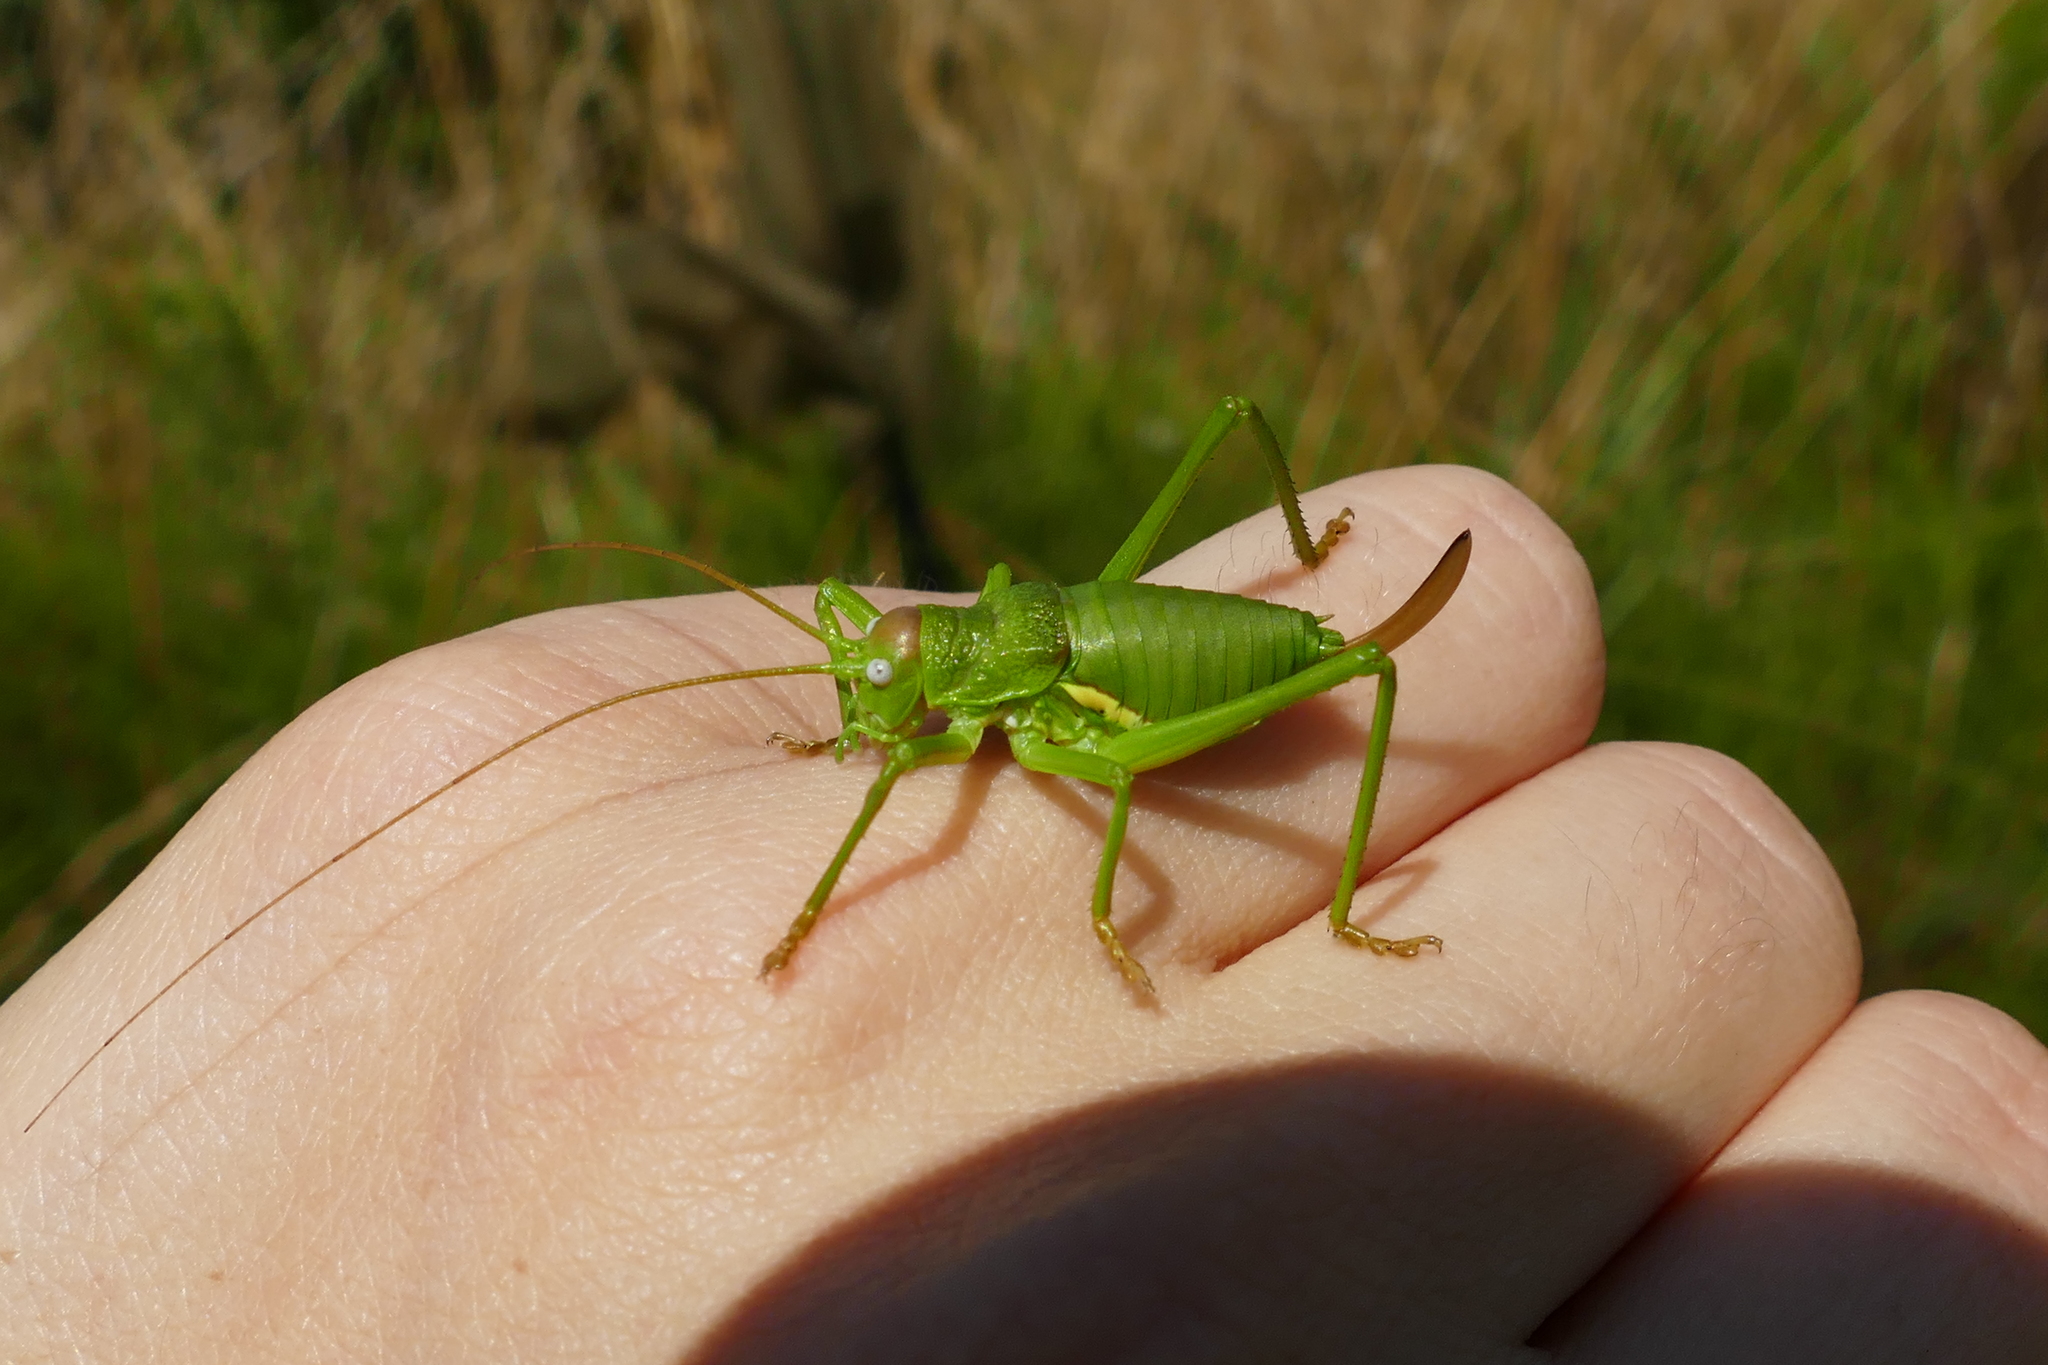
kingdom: Animalia
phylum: Arthropoda
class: Insecta
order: Orthoptera
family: Tettigoniidae
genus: Uromenus
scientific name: Uromenus rugosicollis
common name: Rough saddle bush-cricket
